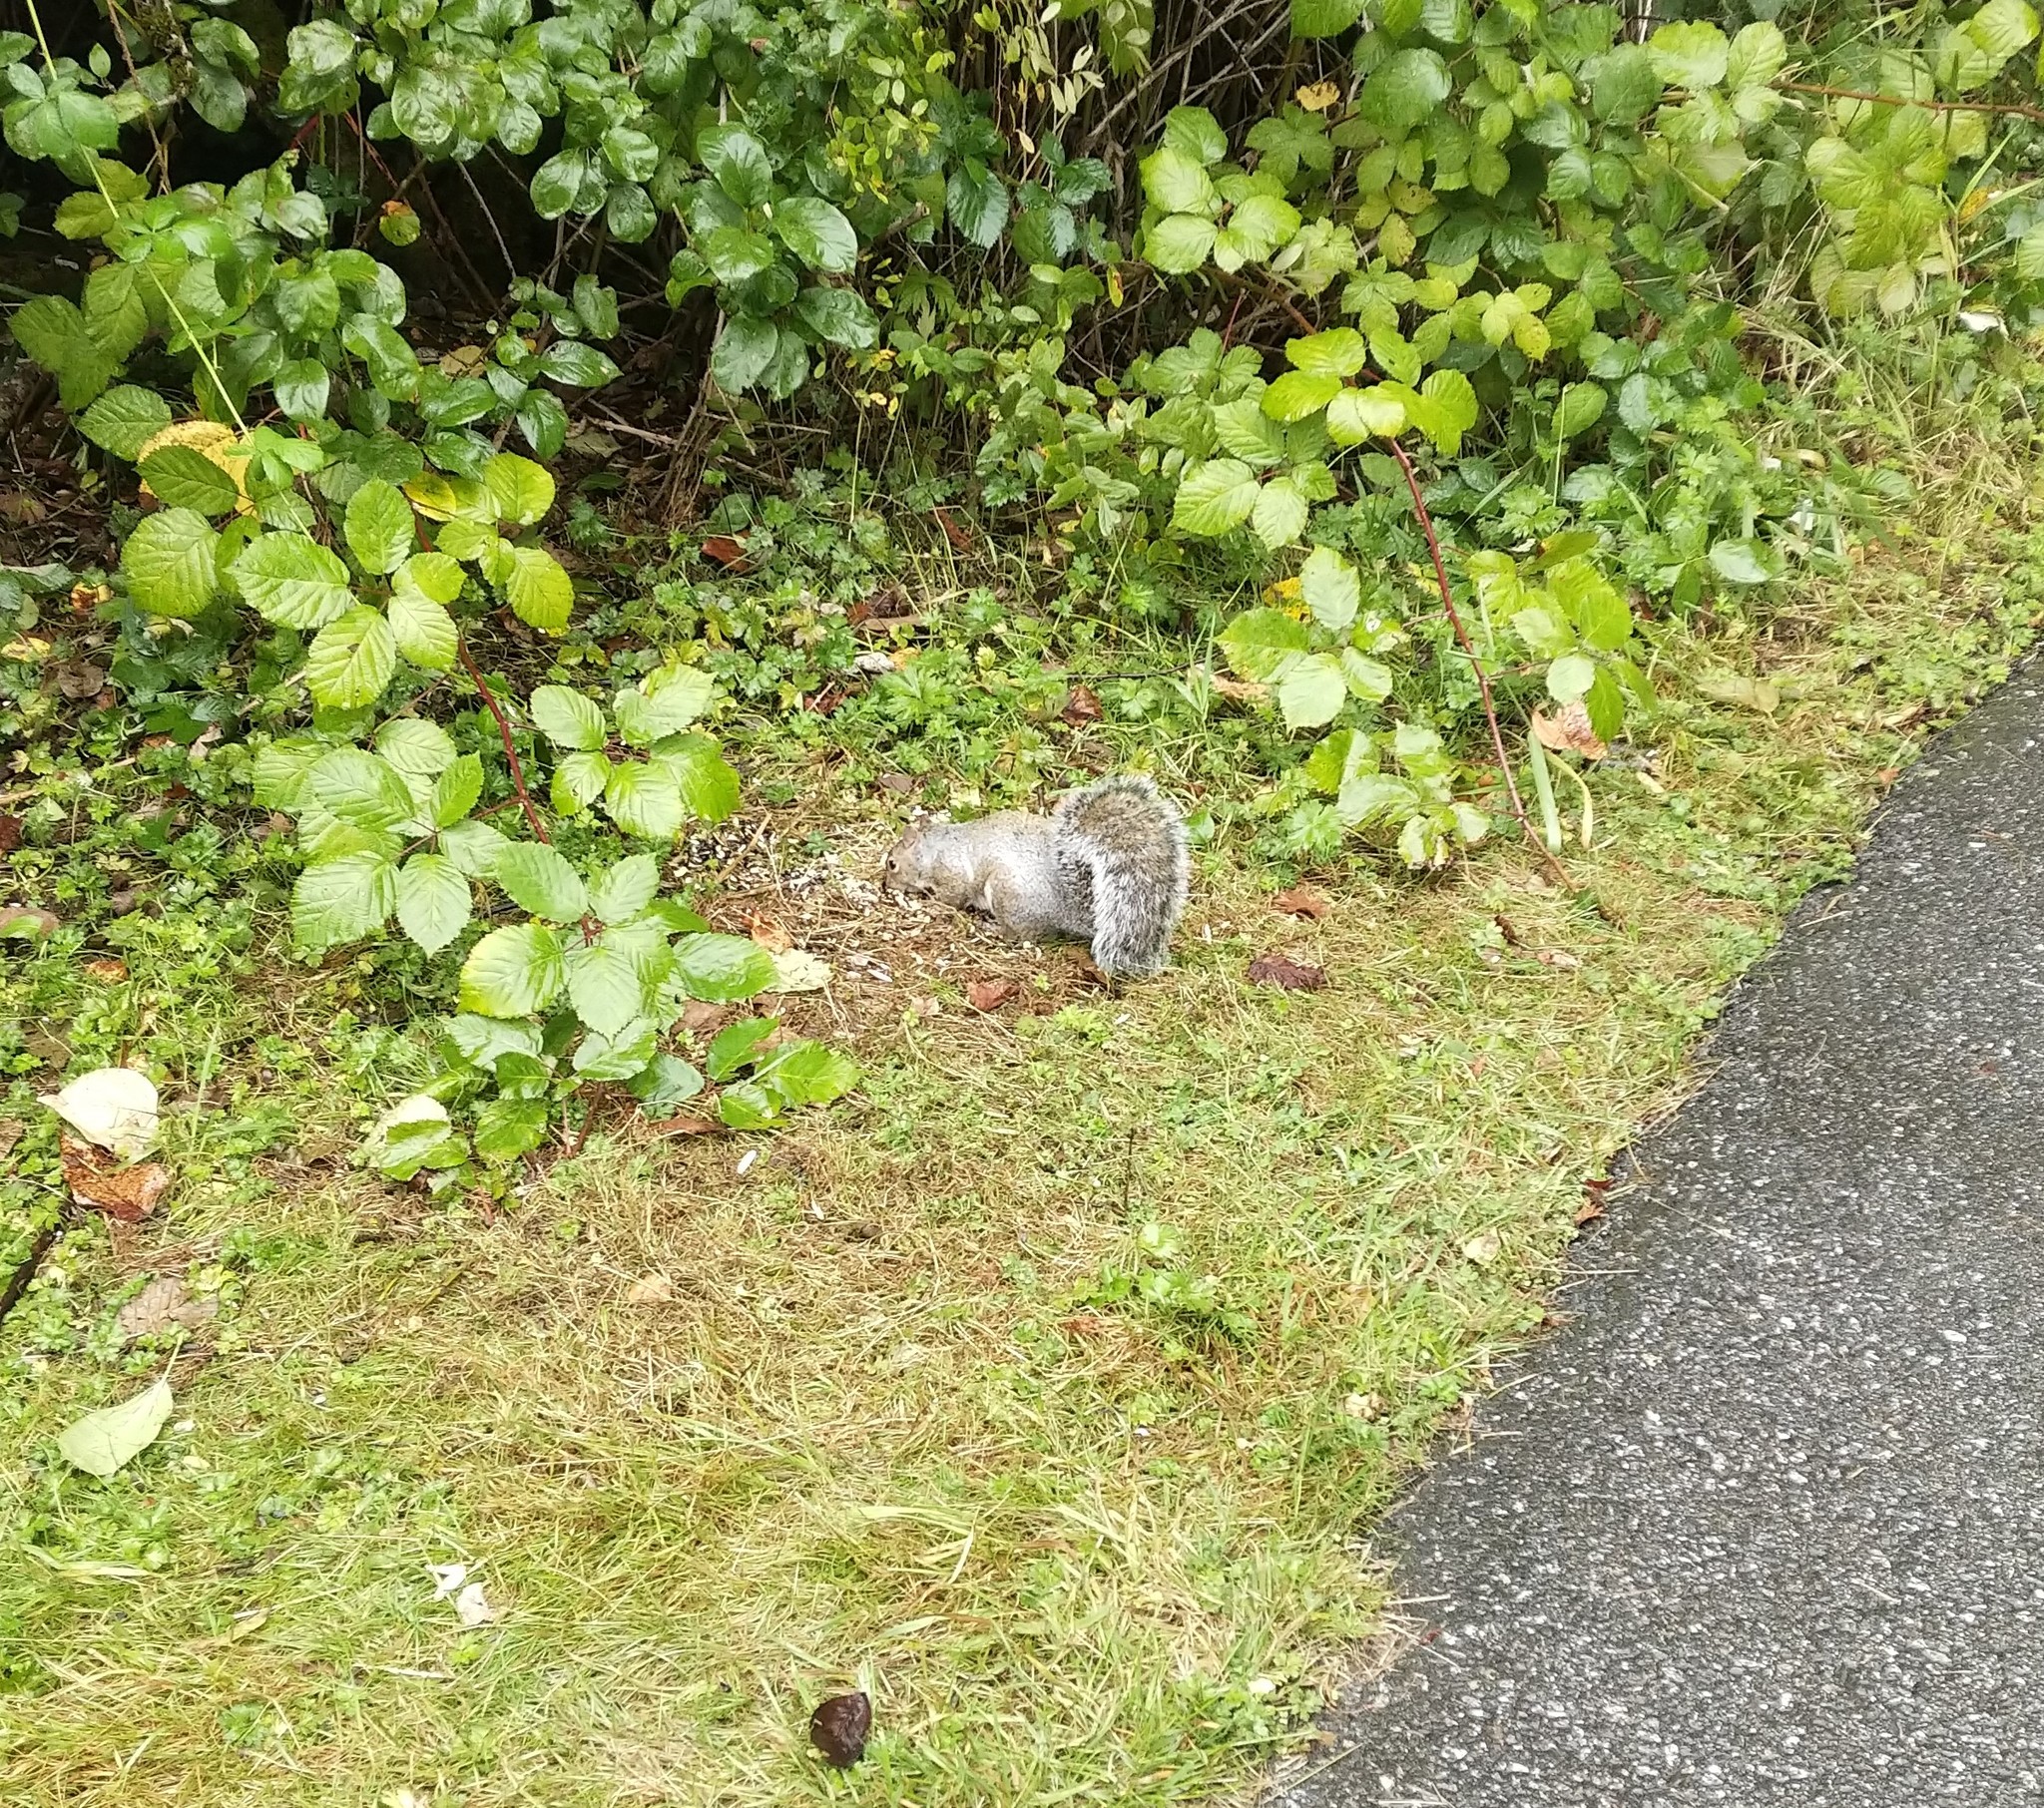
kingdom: Animalia
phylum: Chordata
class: Mammalia
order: Rodentia
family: Sciuridae
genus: Sciurus
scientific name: Sciurus carolinensis
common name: Eastern gray squirrel
